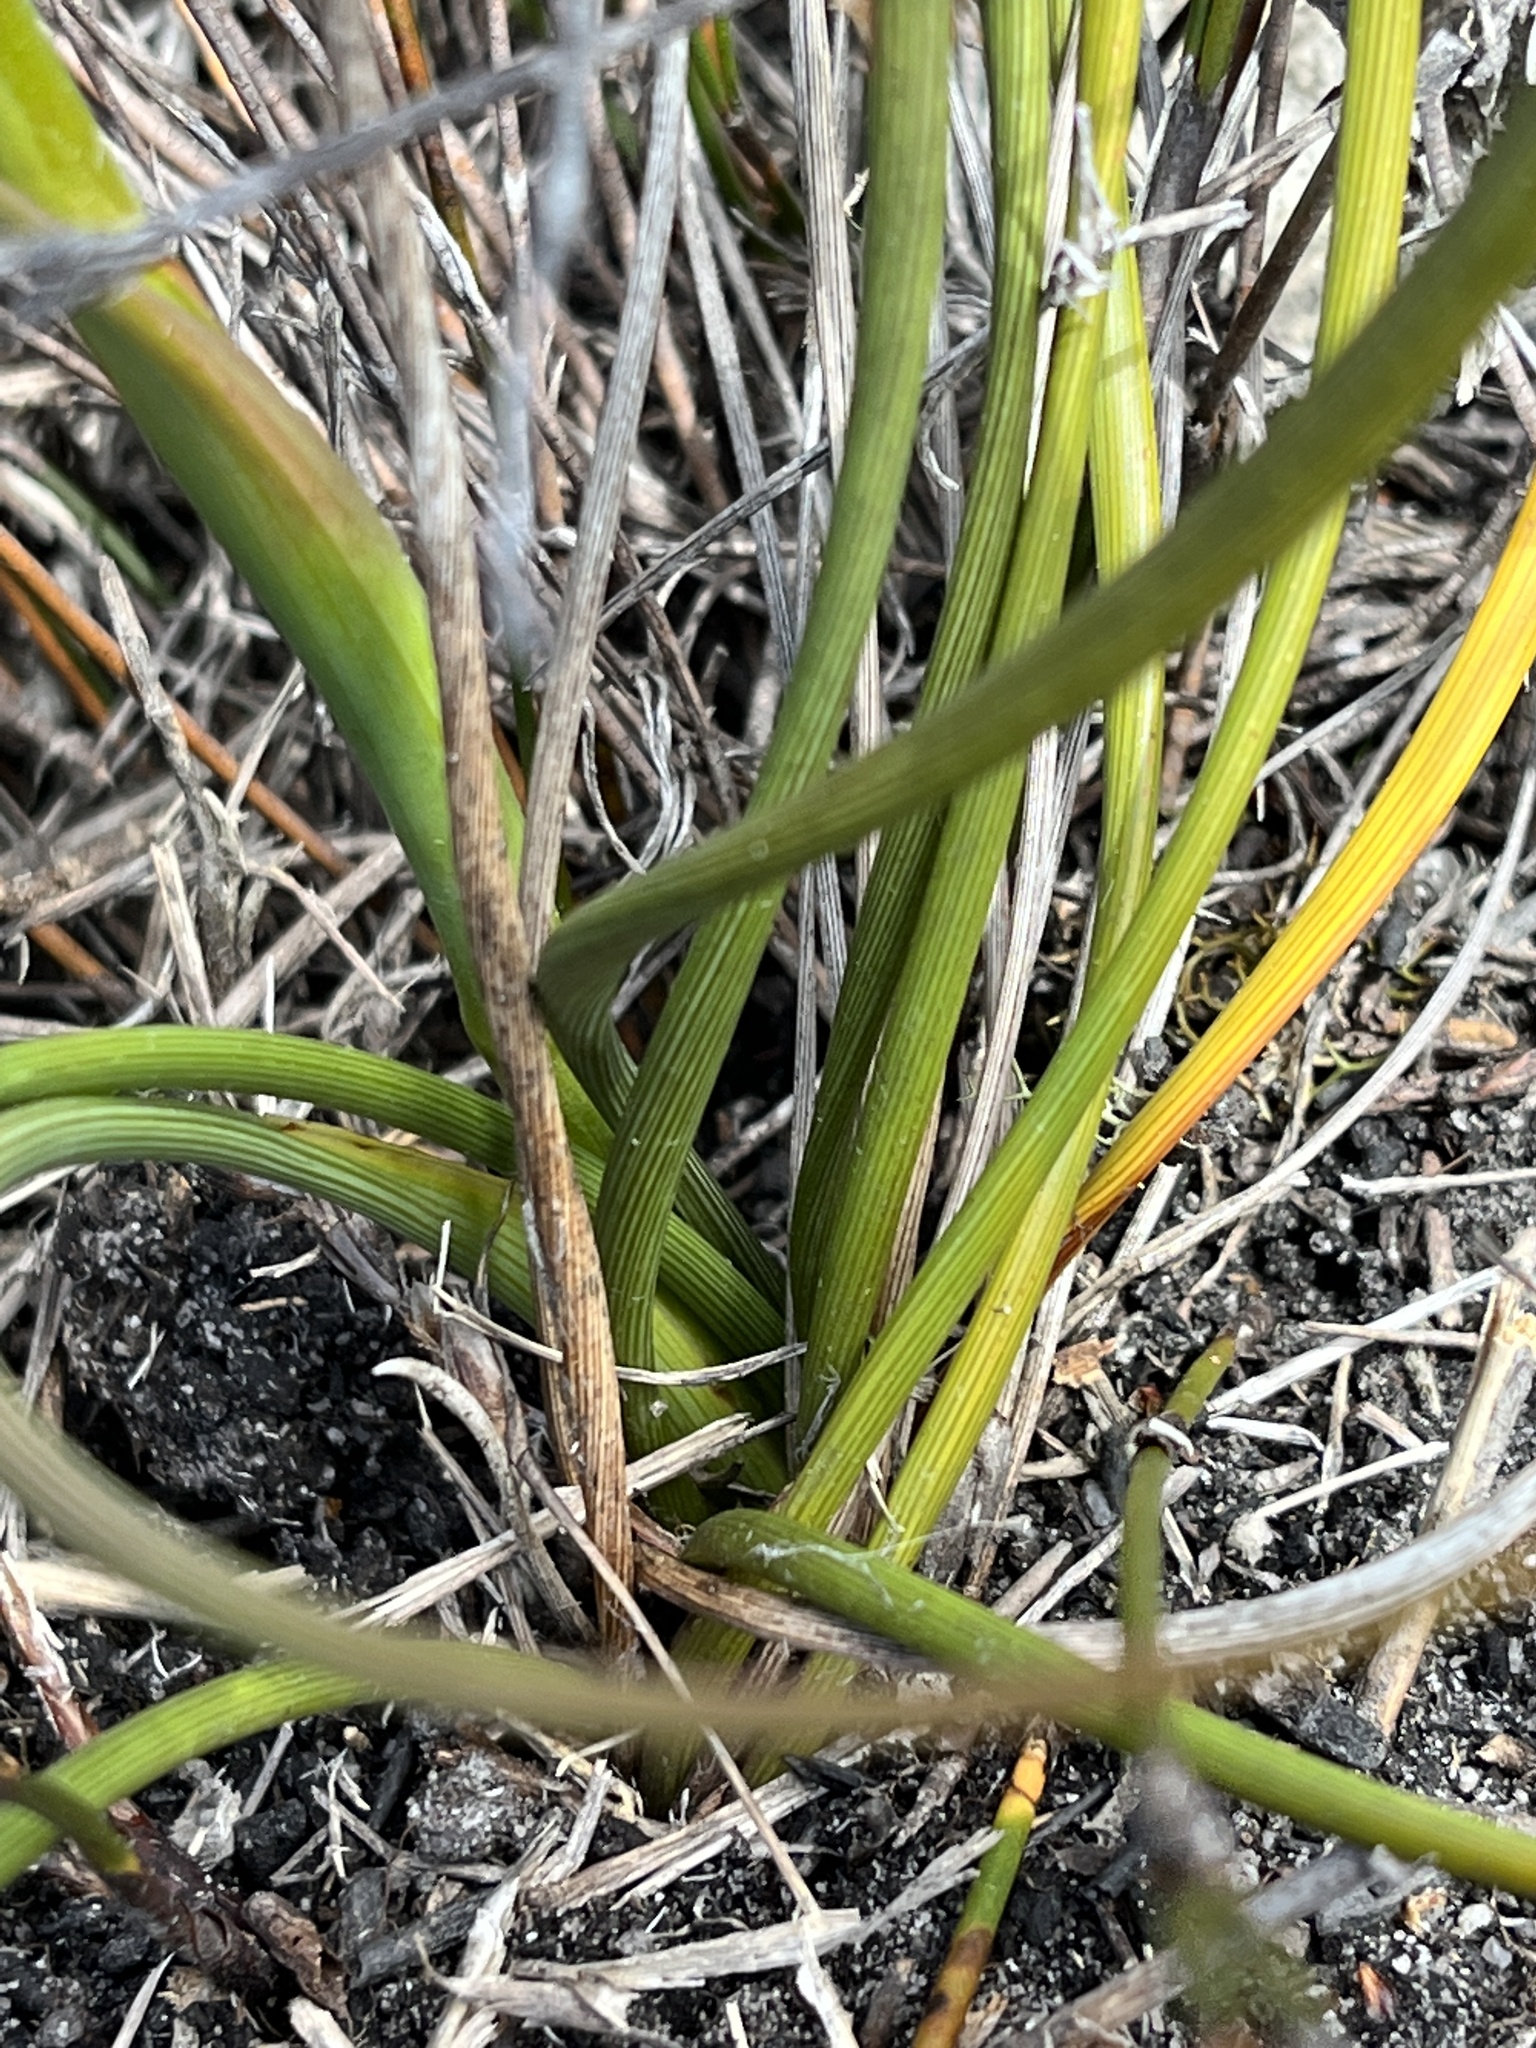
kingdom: Plantae
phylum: Tracheophyta
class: Liliopsida
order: Asparagales
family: Iridaceae
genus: Aristea
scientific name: Aristea racemosa
